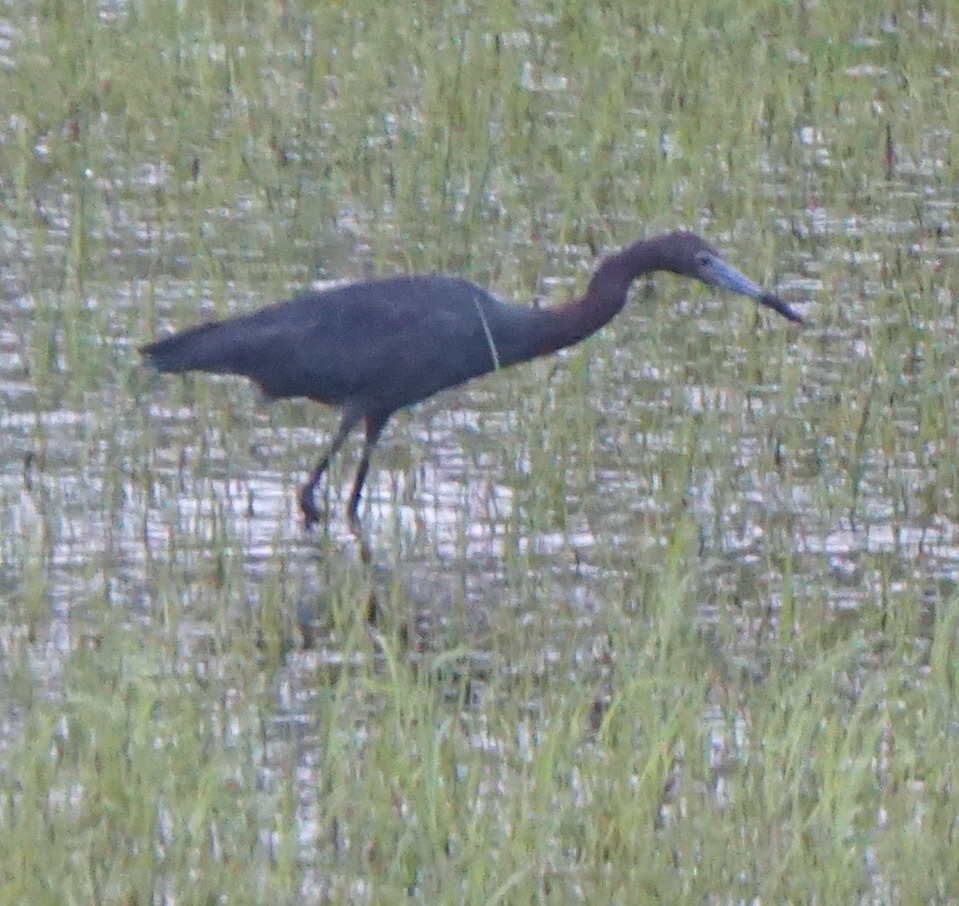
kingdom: Animalia
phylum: Chordata
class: Aves
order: Pelecaniformes
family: Ardeidae
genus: Egretta
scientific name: Egretta caerulea
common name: Little blue heron
